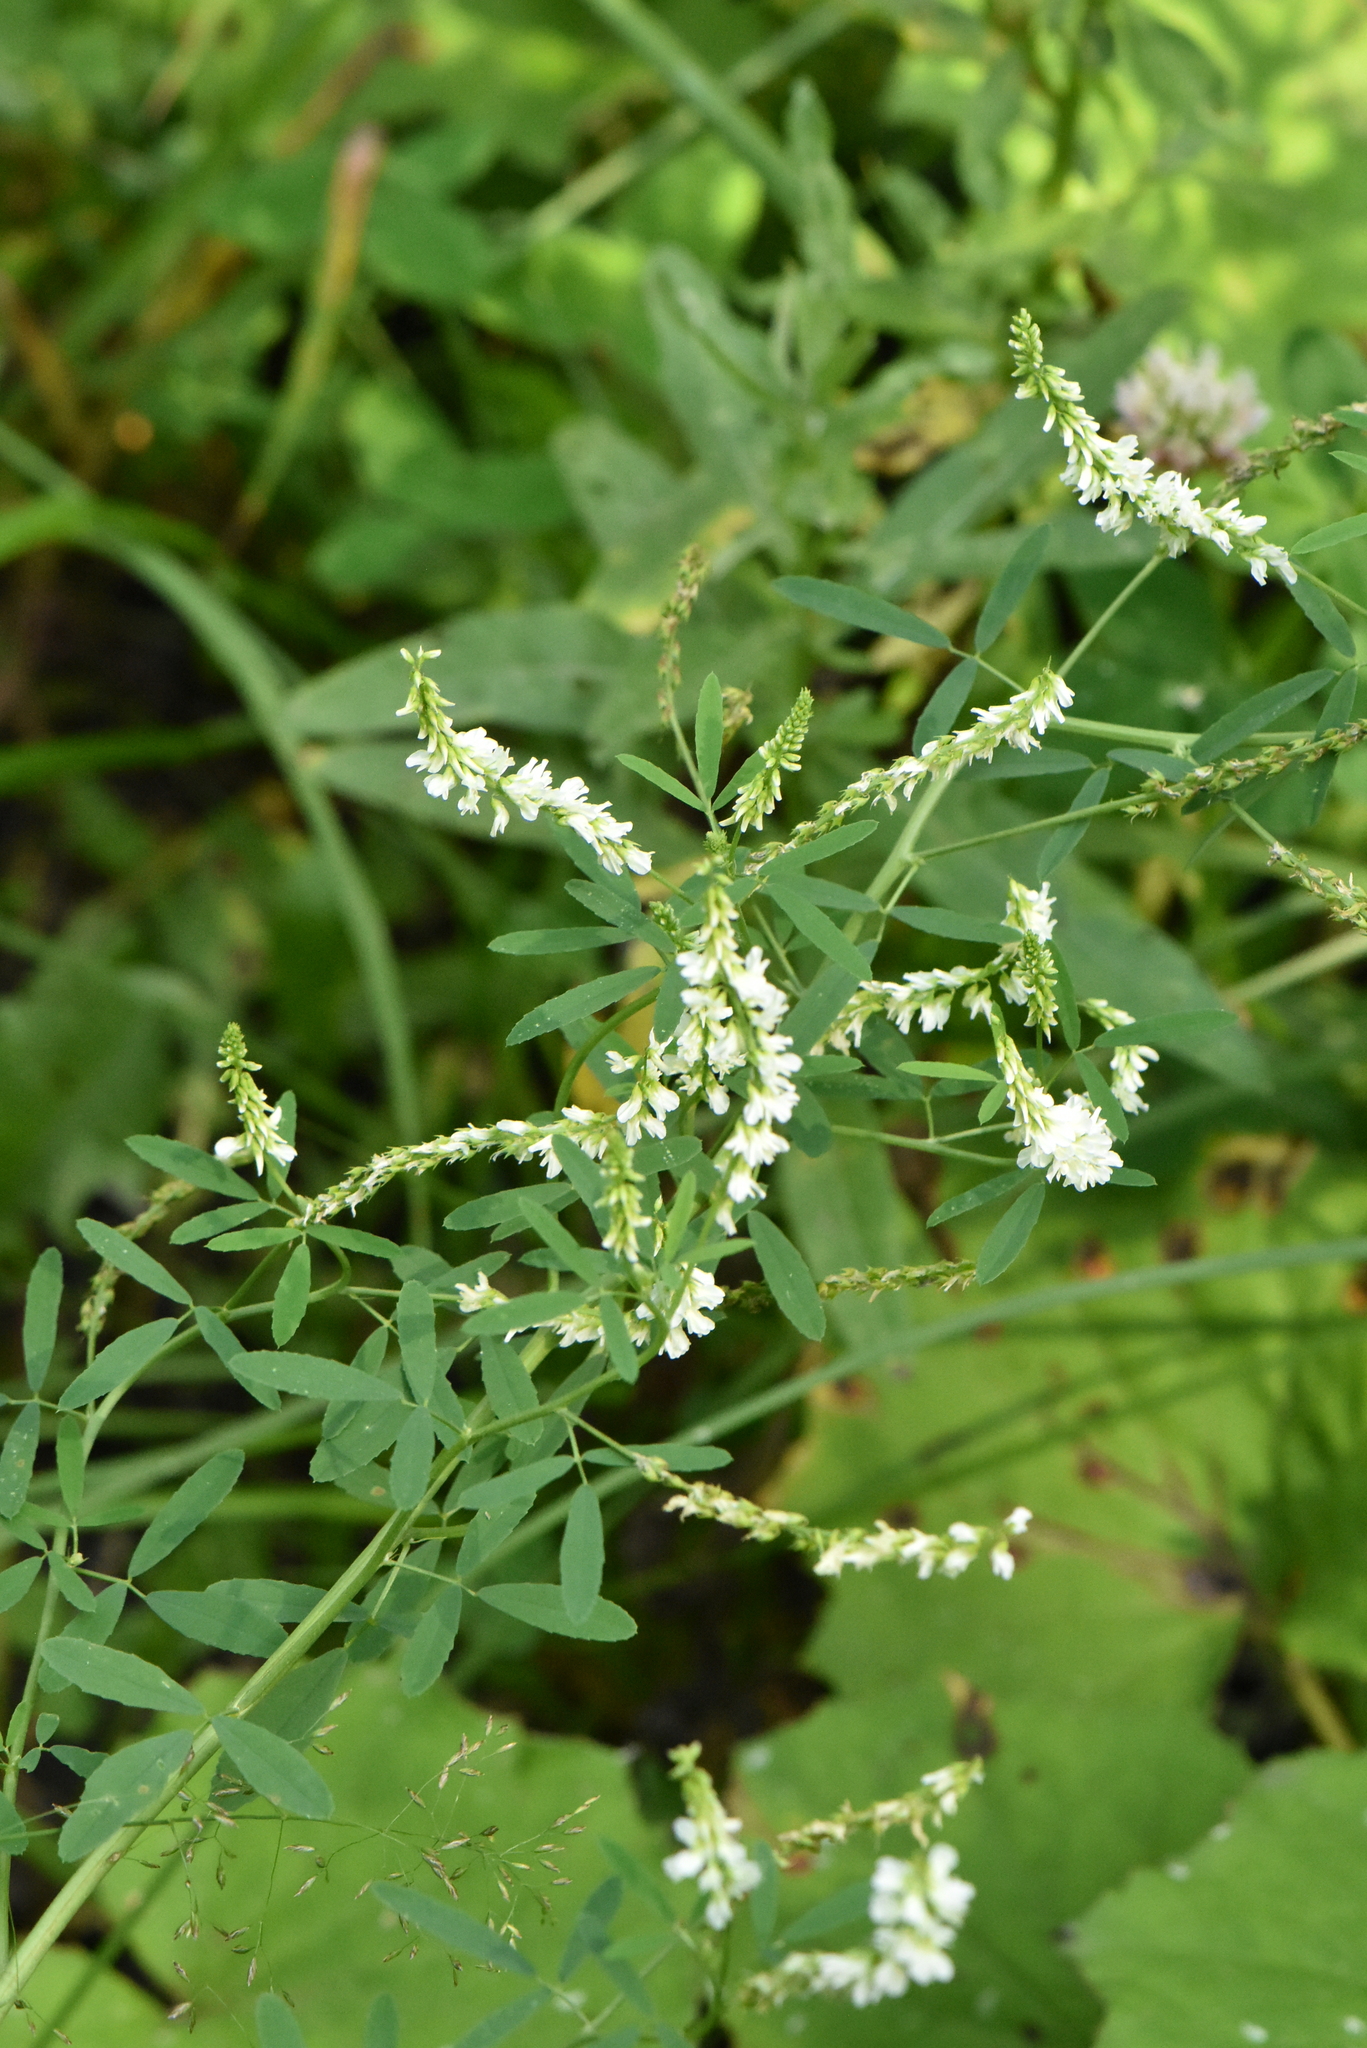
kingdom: Plantae
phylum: Tracheophyta
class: Magnoliopsida
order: Fabales
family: Fabaceae
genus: Melilotus
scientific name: Melilotus albus
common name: White melilot
